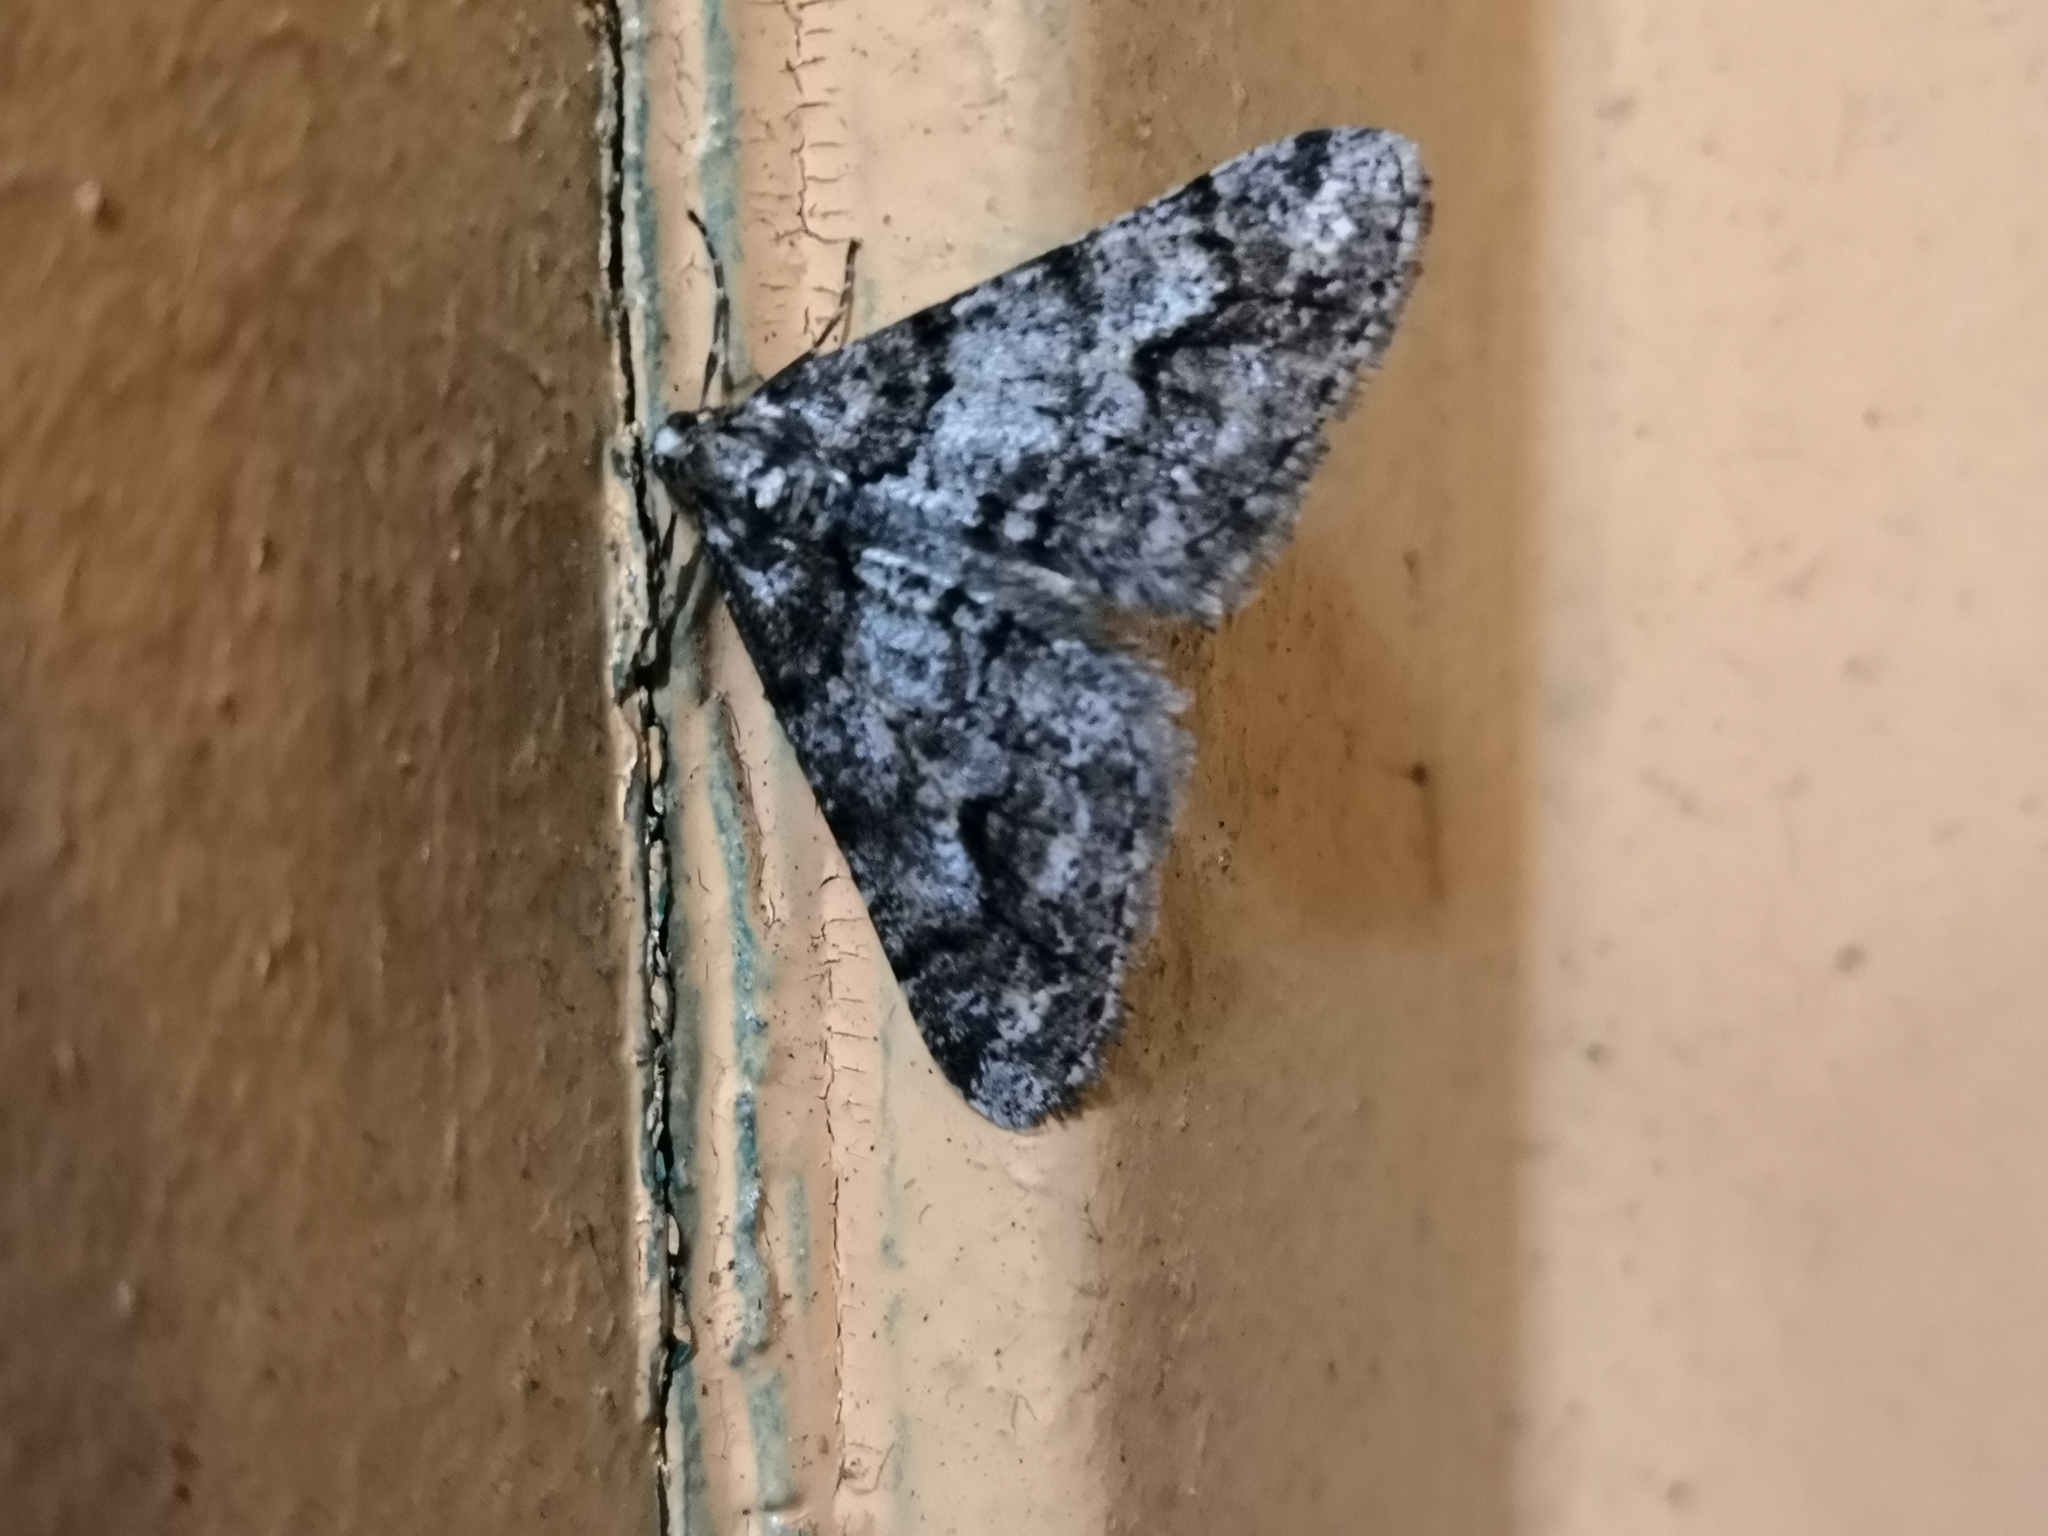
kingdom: Animalia
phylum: Arthropoda
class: Insecta
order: Lepidoptera
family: Geometridae
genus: Agriopis
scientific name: Agriopis leucophaearia
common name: Spring usher
